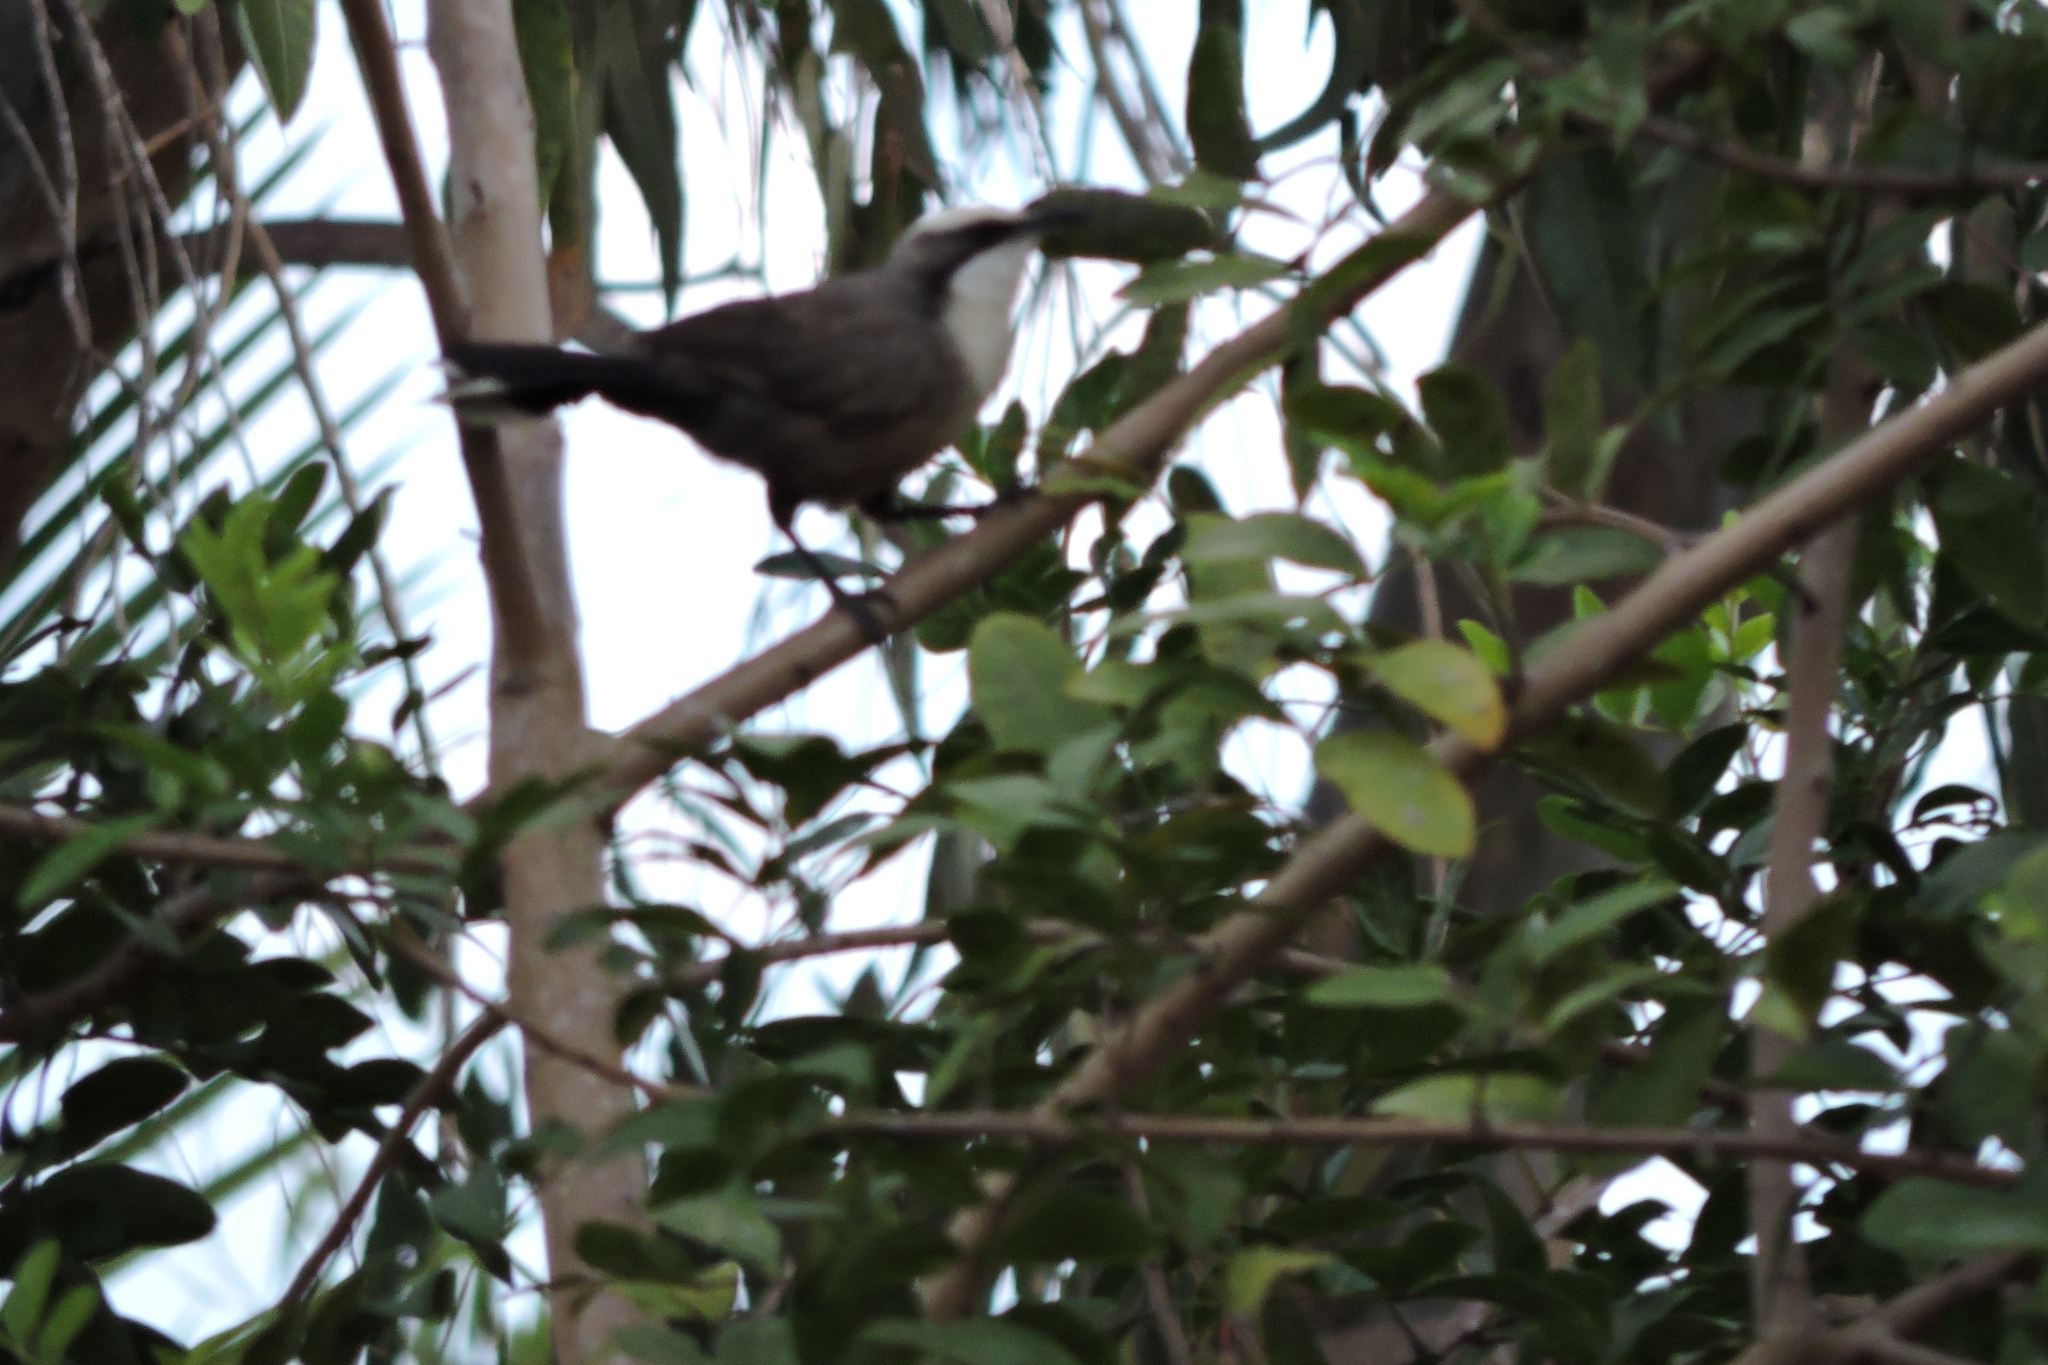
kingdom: Animalia
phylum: Chordata
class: Aves
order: Passeriformes
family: Pomatostomidae
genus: Pomatostomus
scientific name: Pomatostomus temporalis
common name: Grey-crowned babbler
